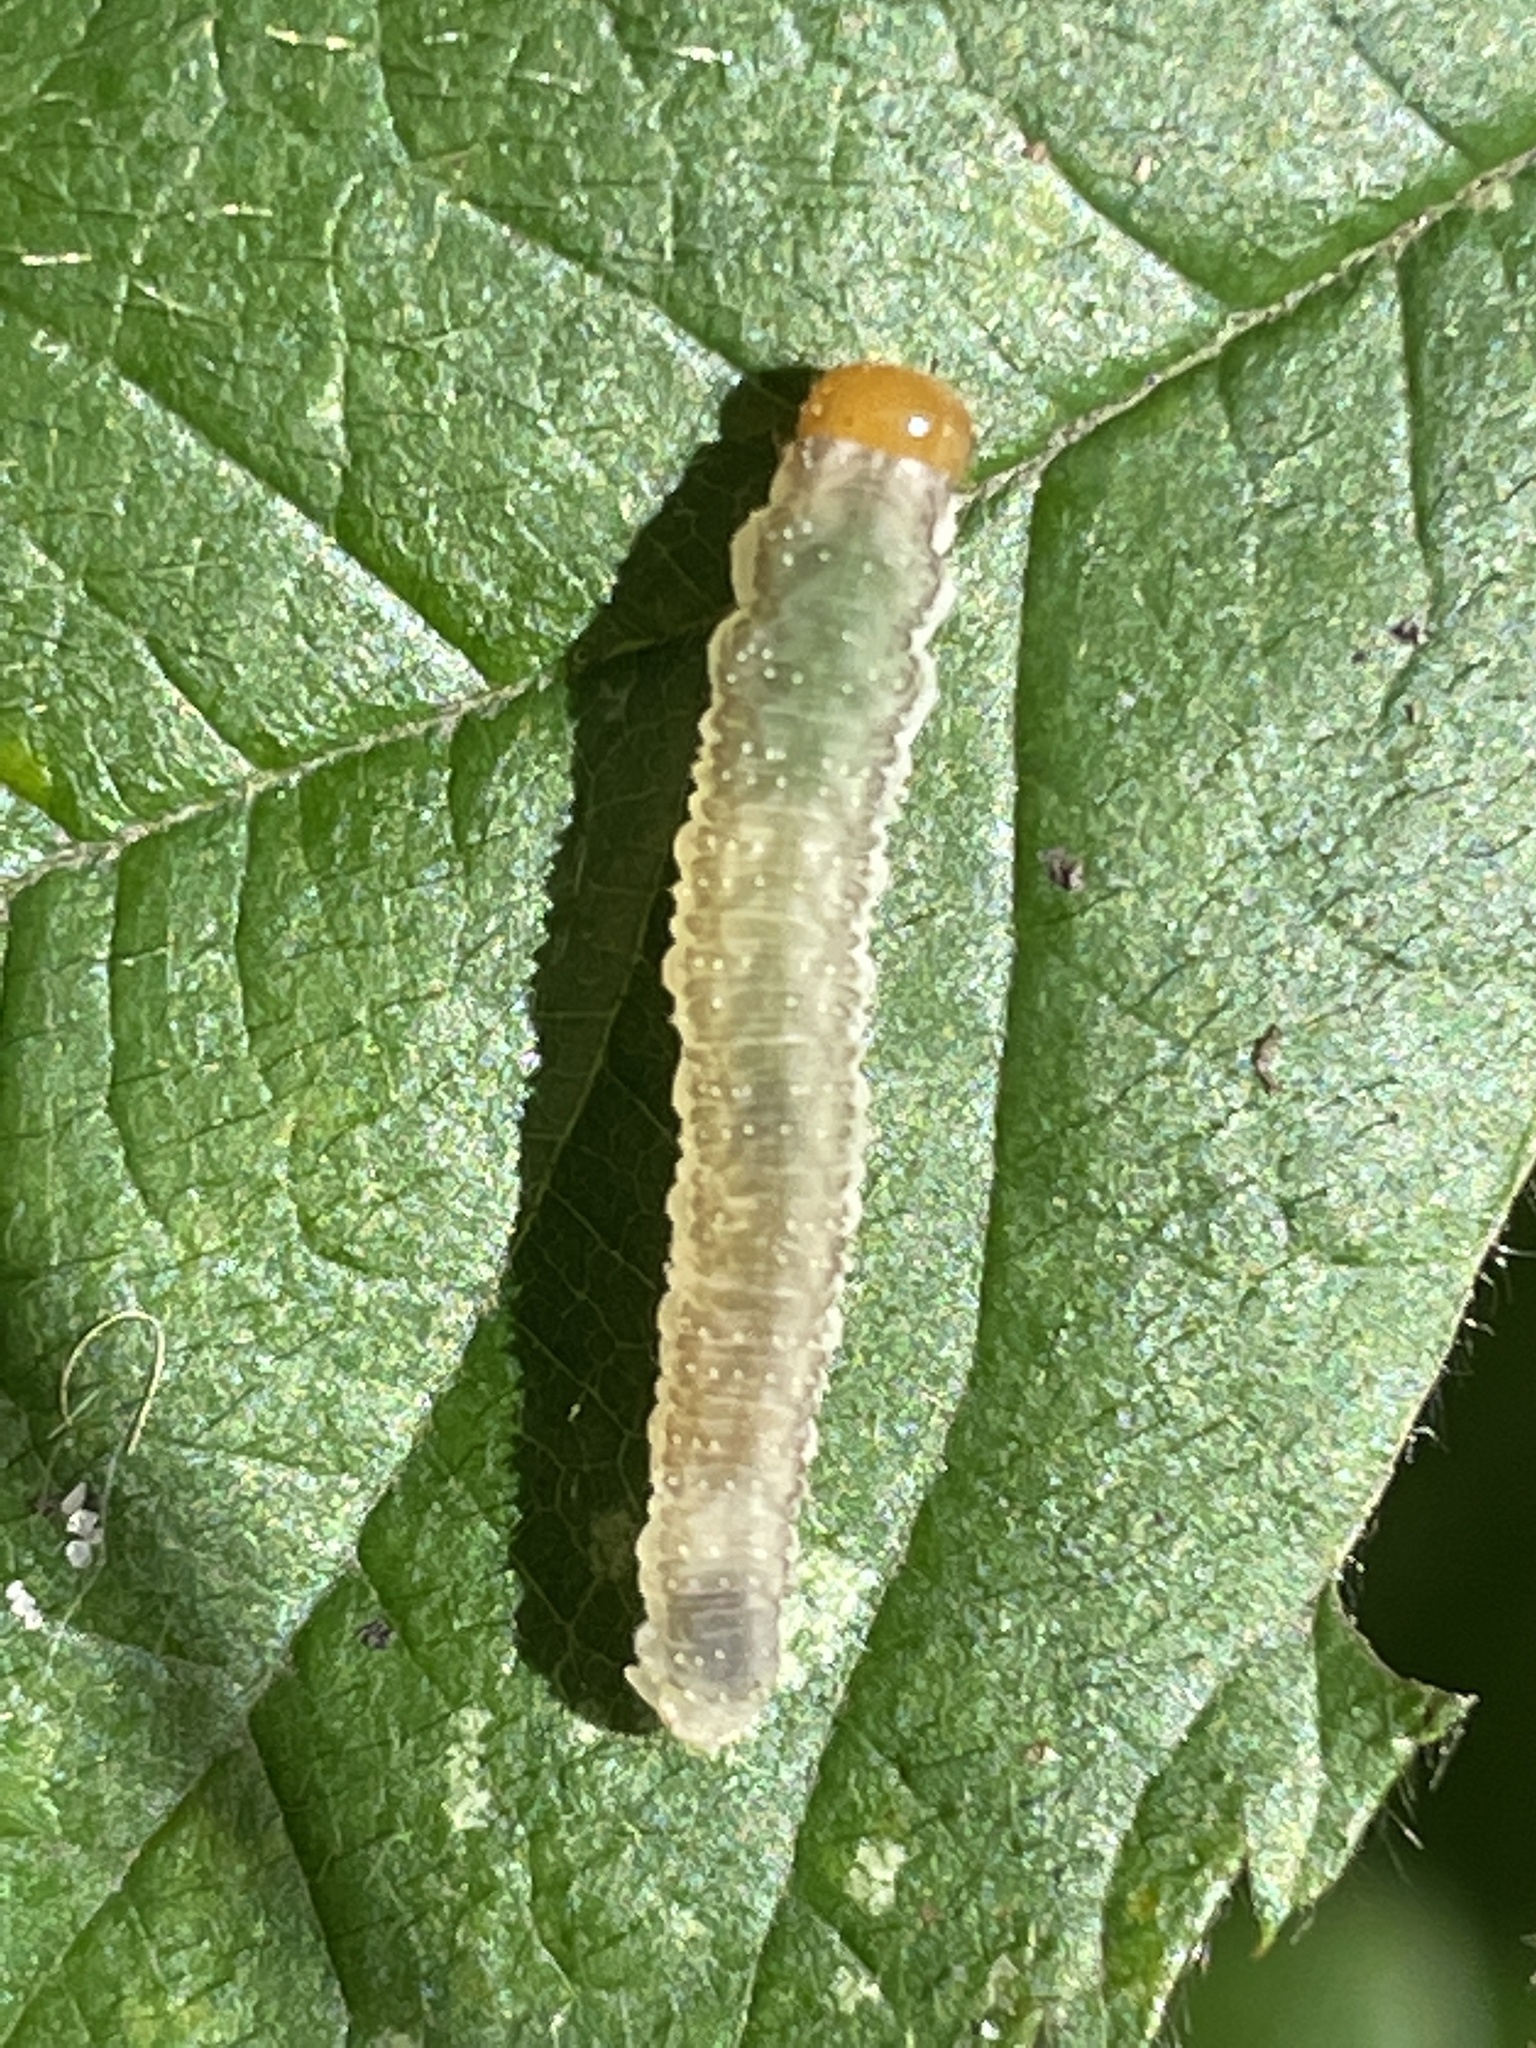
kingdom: Animalia
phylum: Arthropoda
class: Insecta
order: Hymenoptera
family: Tenthredinidae
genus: Tenthredo
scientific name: Tenthredo livida
